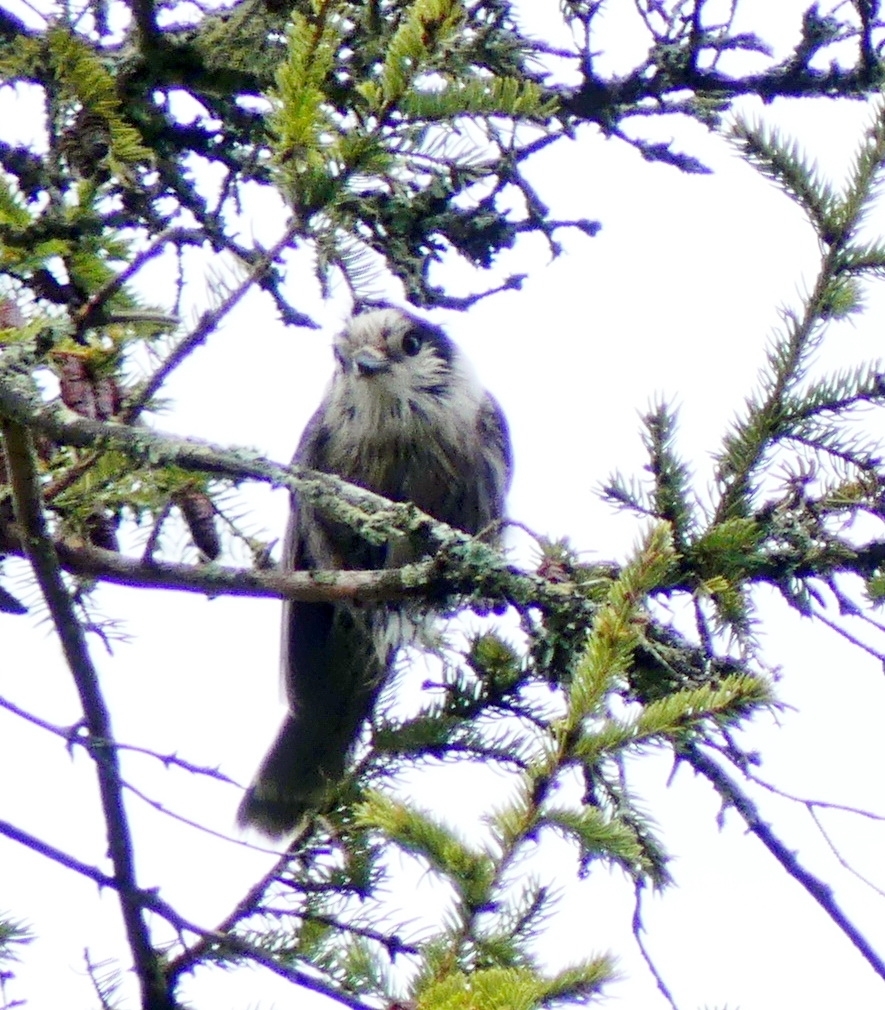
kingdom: Animalia
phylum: Chordata
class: Aves
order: Passeriformes
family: Corvidae
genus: Perisoreus
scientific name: Perisoreus canadensis
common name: Gray jay
